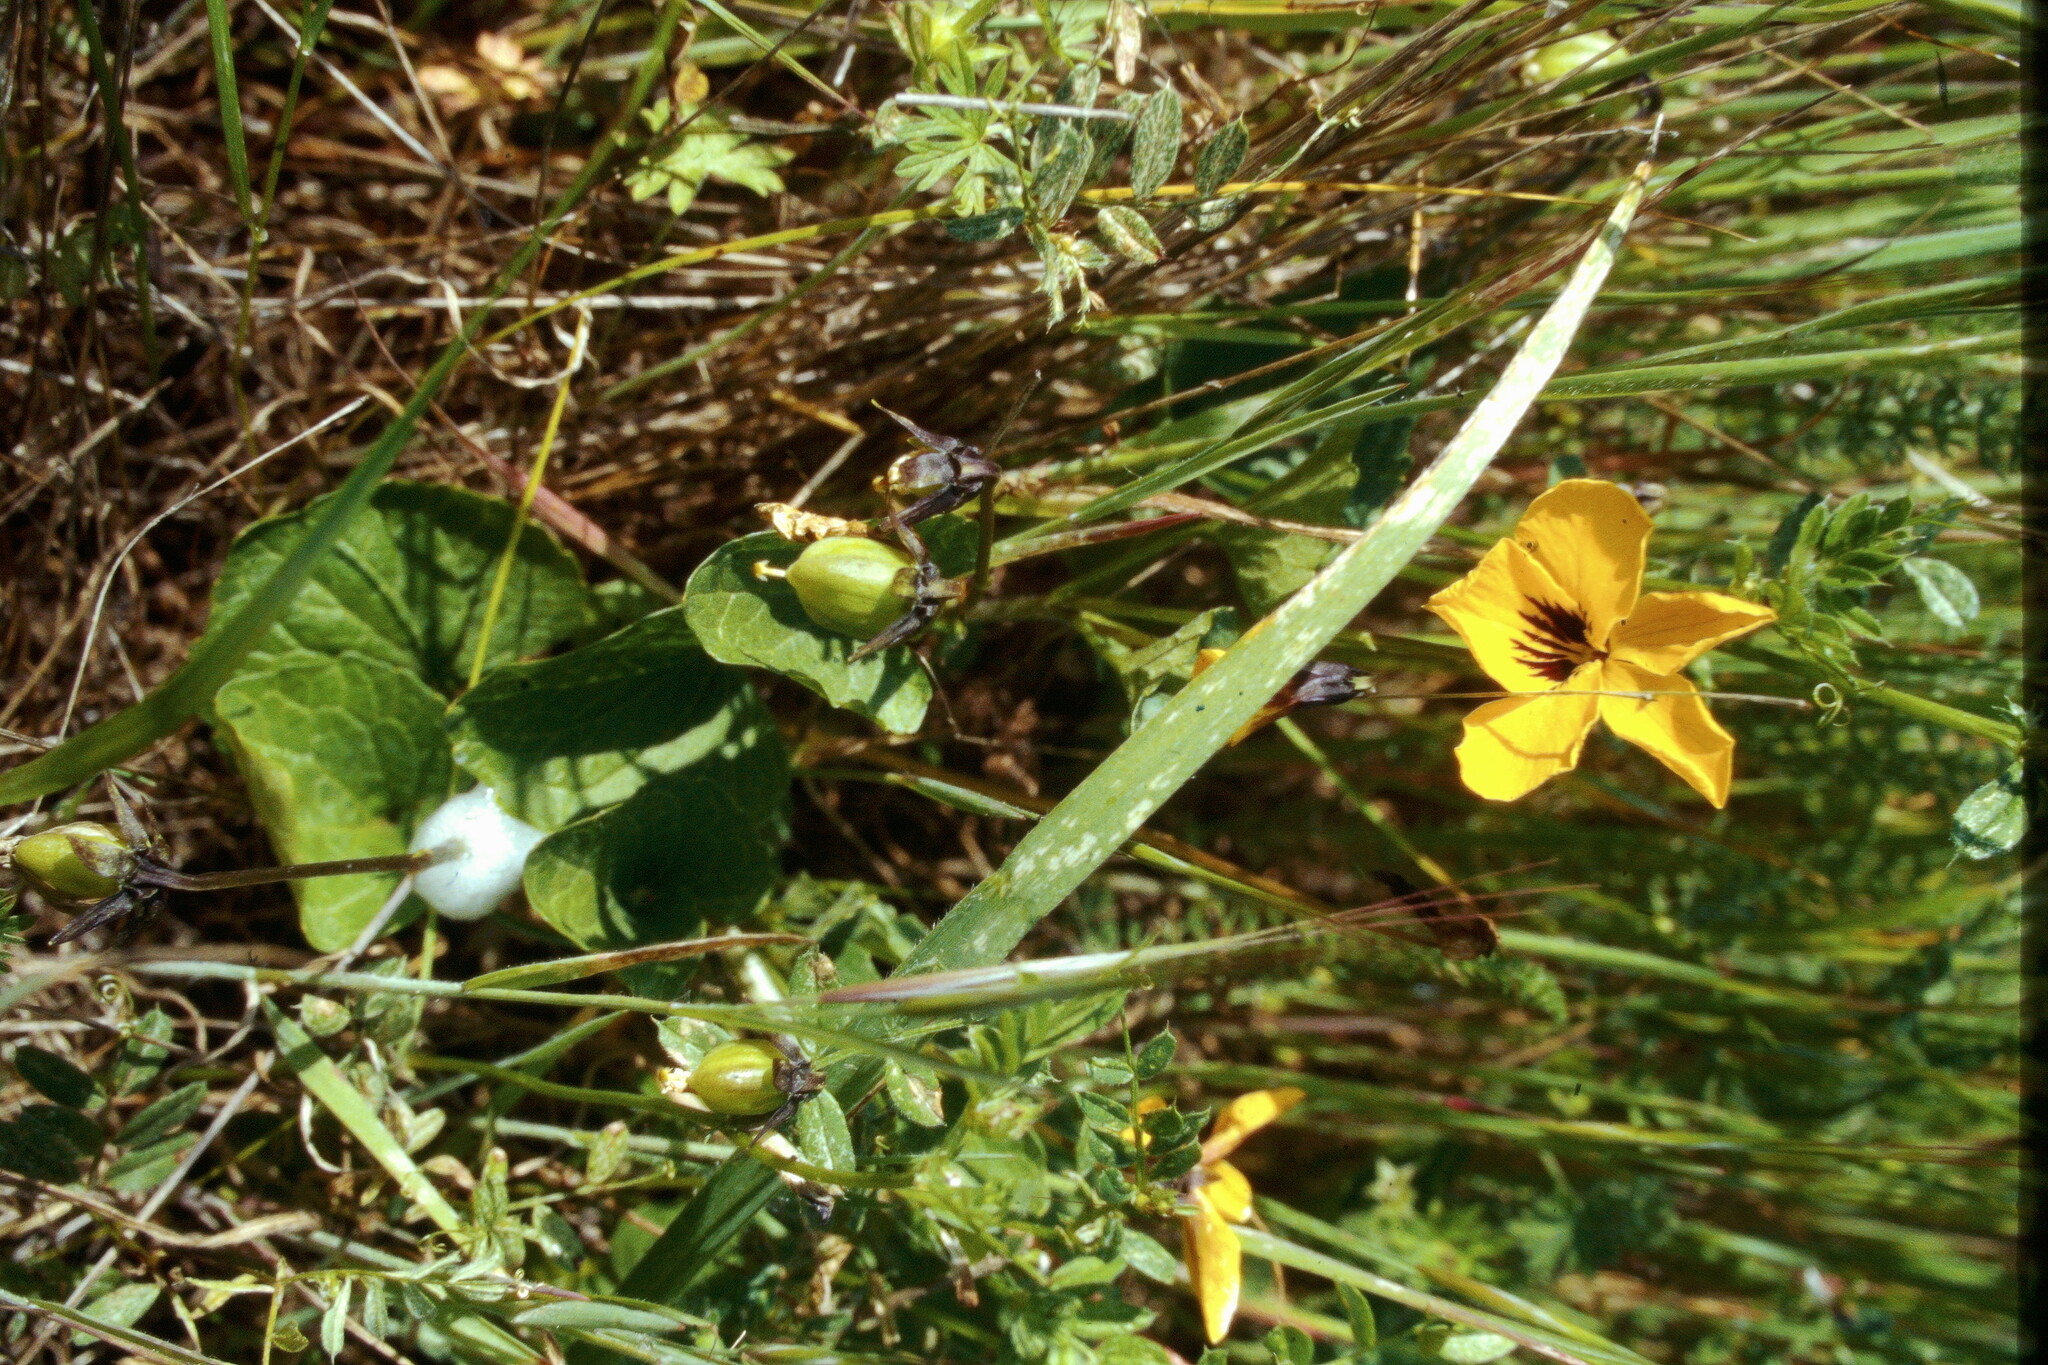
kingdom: Plantae
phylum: Tracheophyta
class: Magnoliopsida
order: Malpighiales
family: Violaceae
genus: Viola
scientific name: Viola pedunculata
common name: California golden violet
